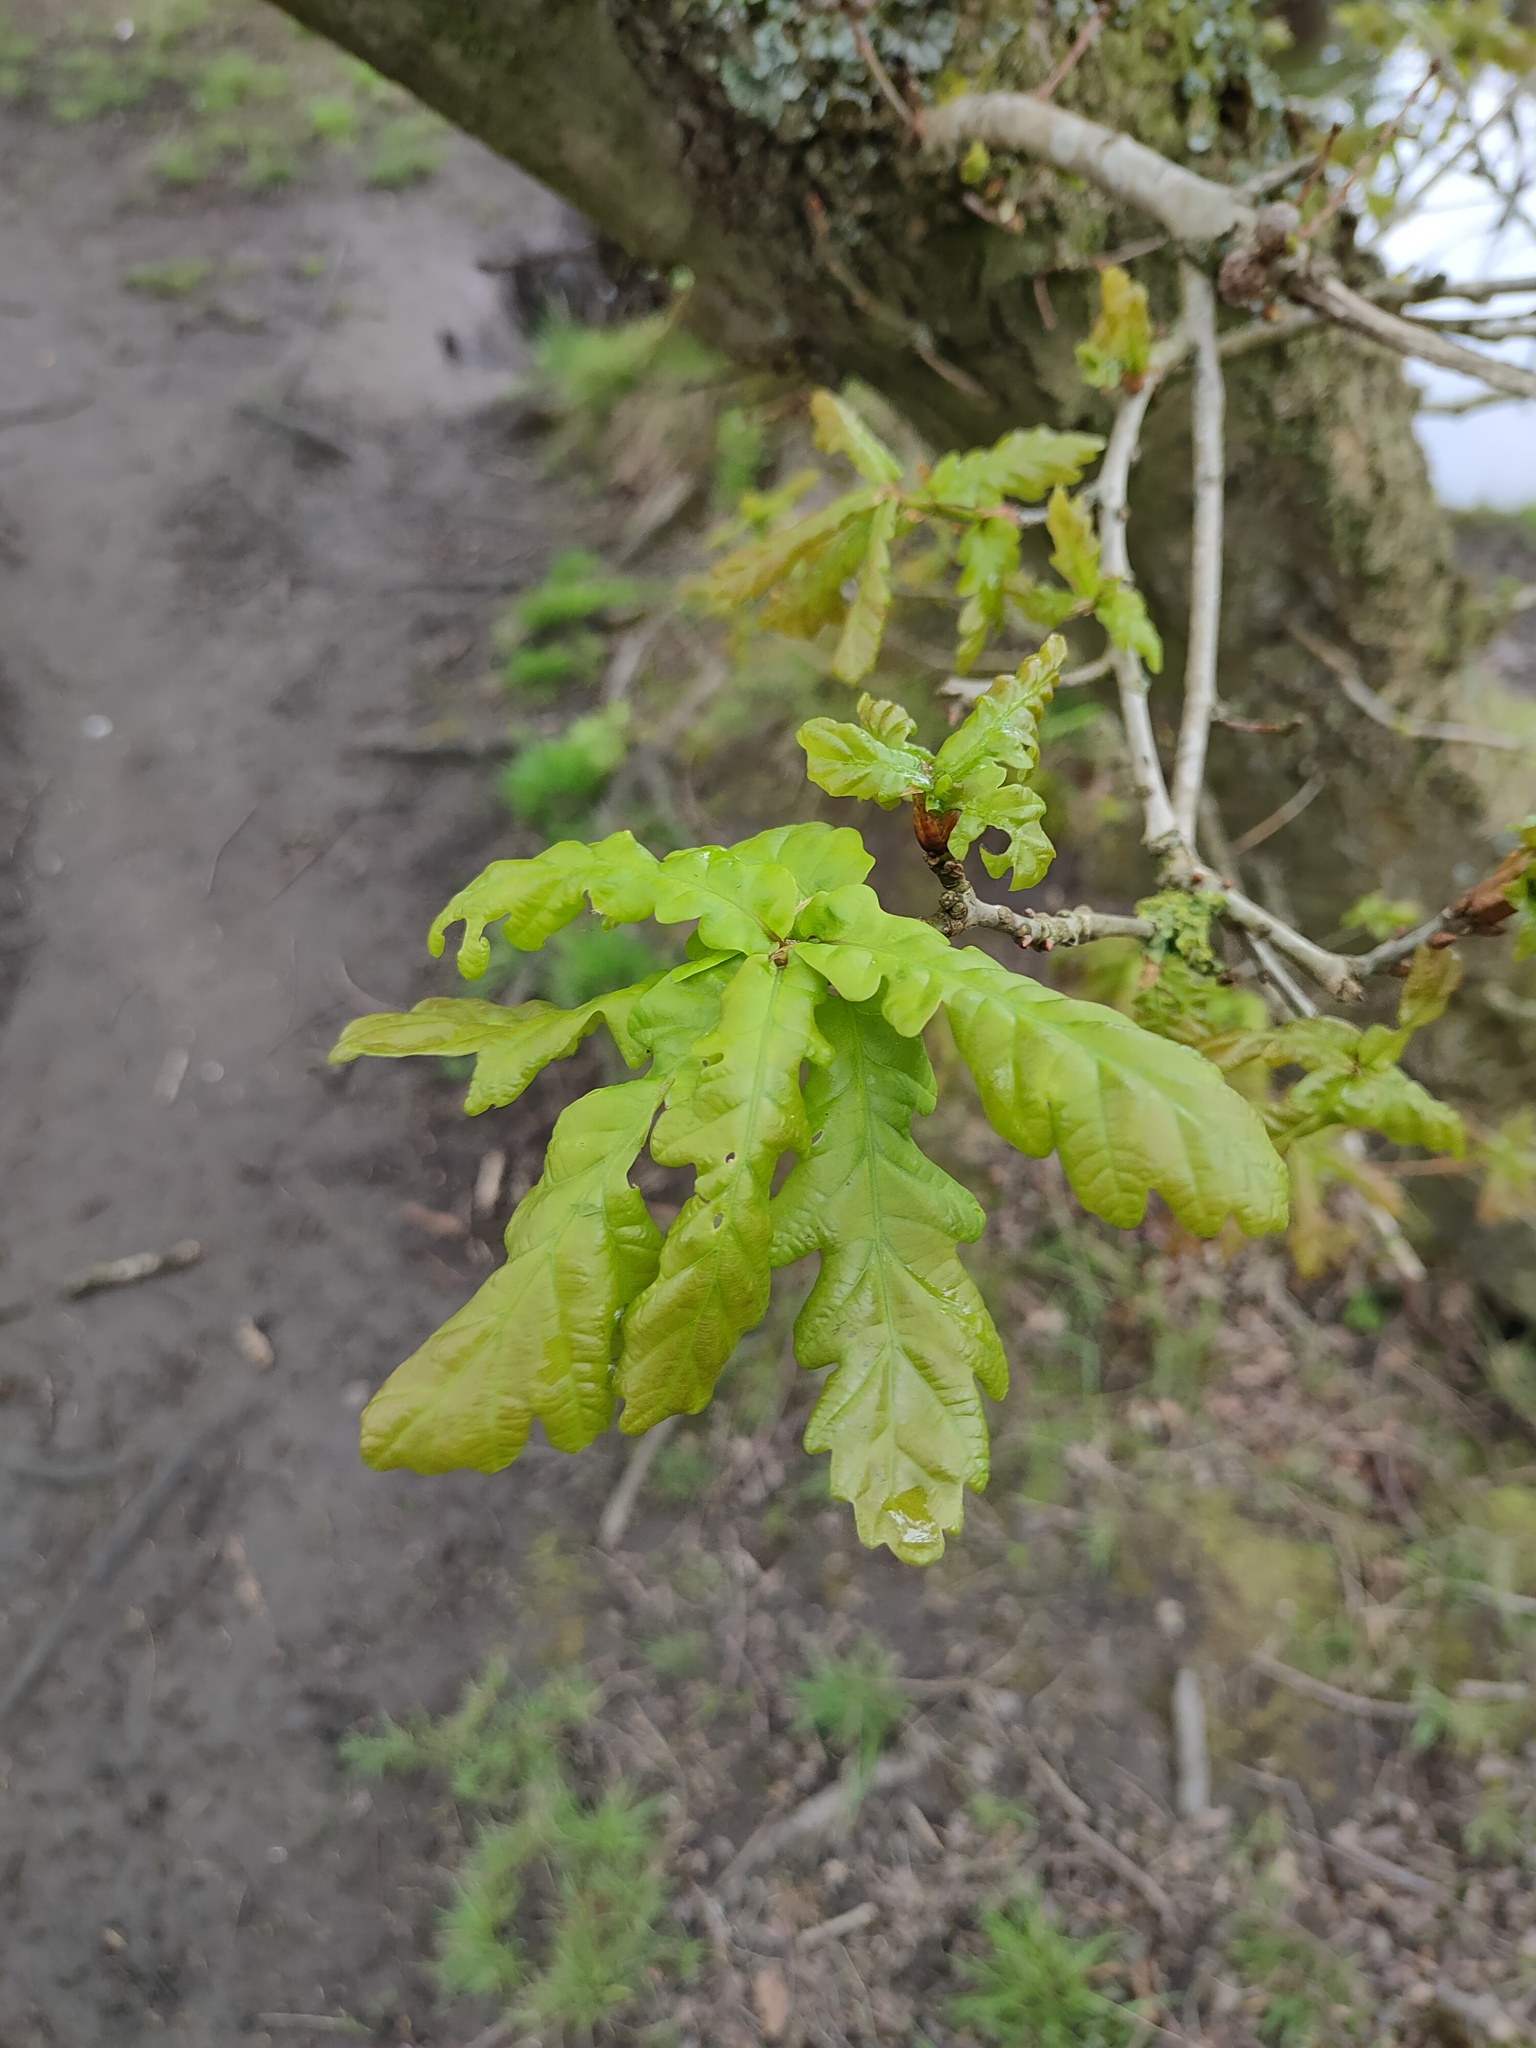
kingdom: Plantae
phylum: Tracheophyta
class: Magnoliopsida
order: Fagales
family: Fagaceae
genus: Quercus
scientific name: Quercus robur
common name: Pedunculate oak
